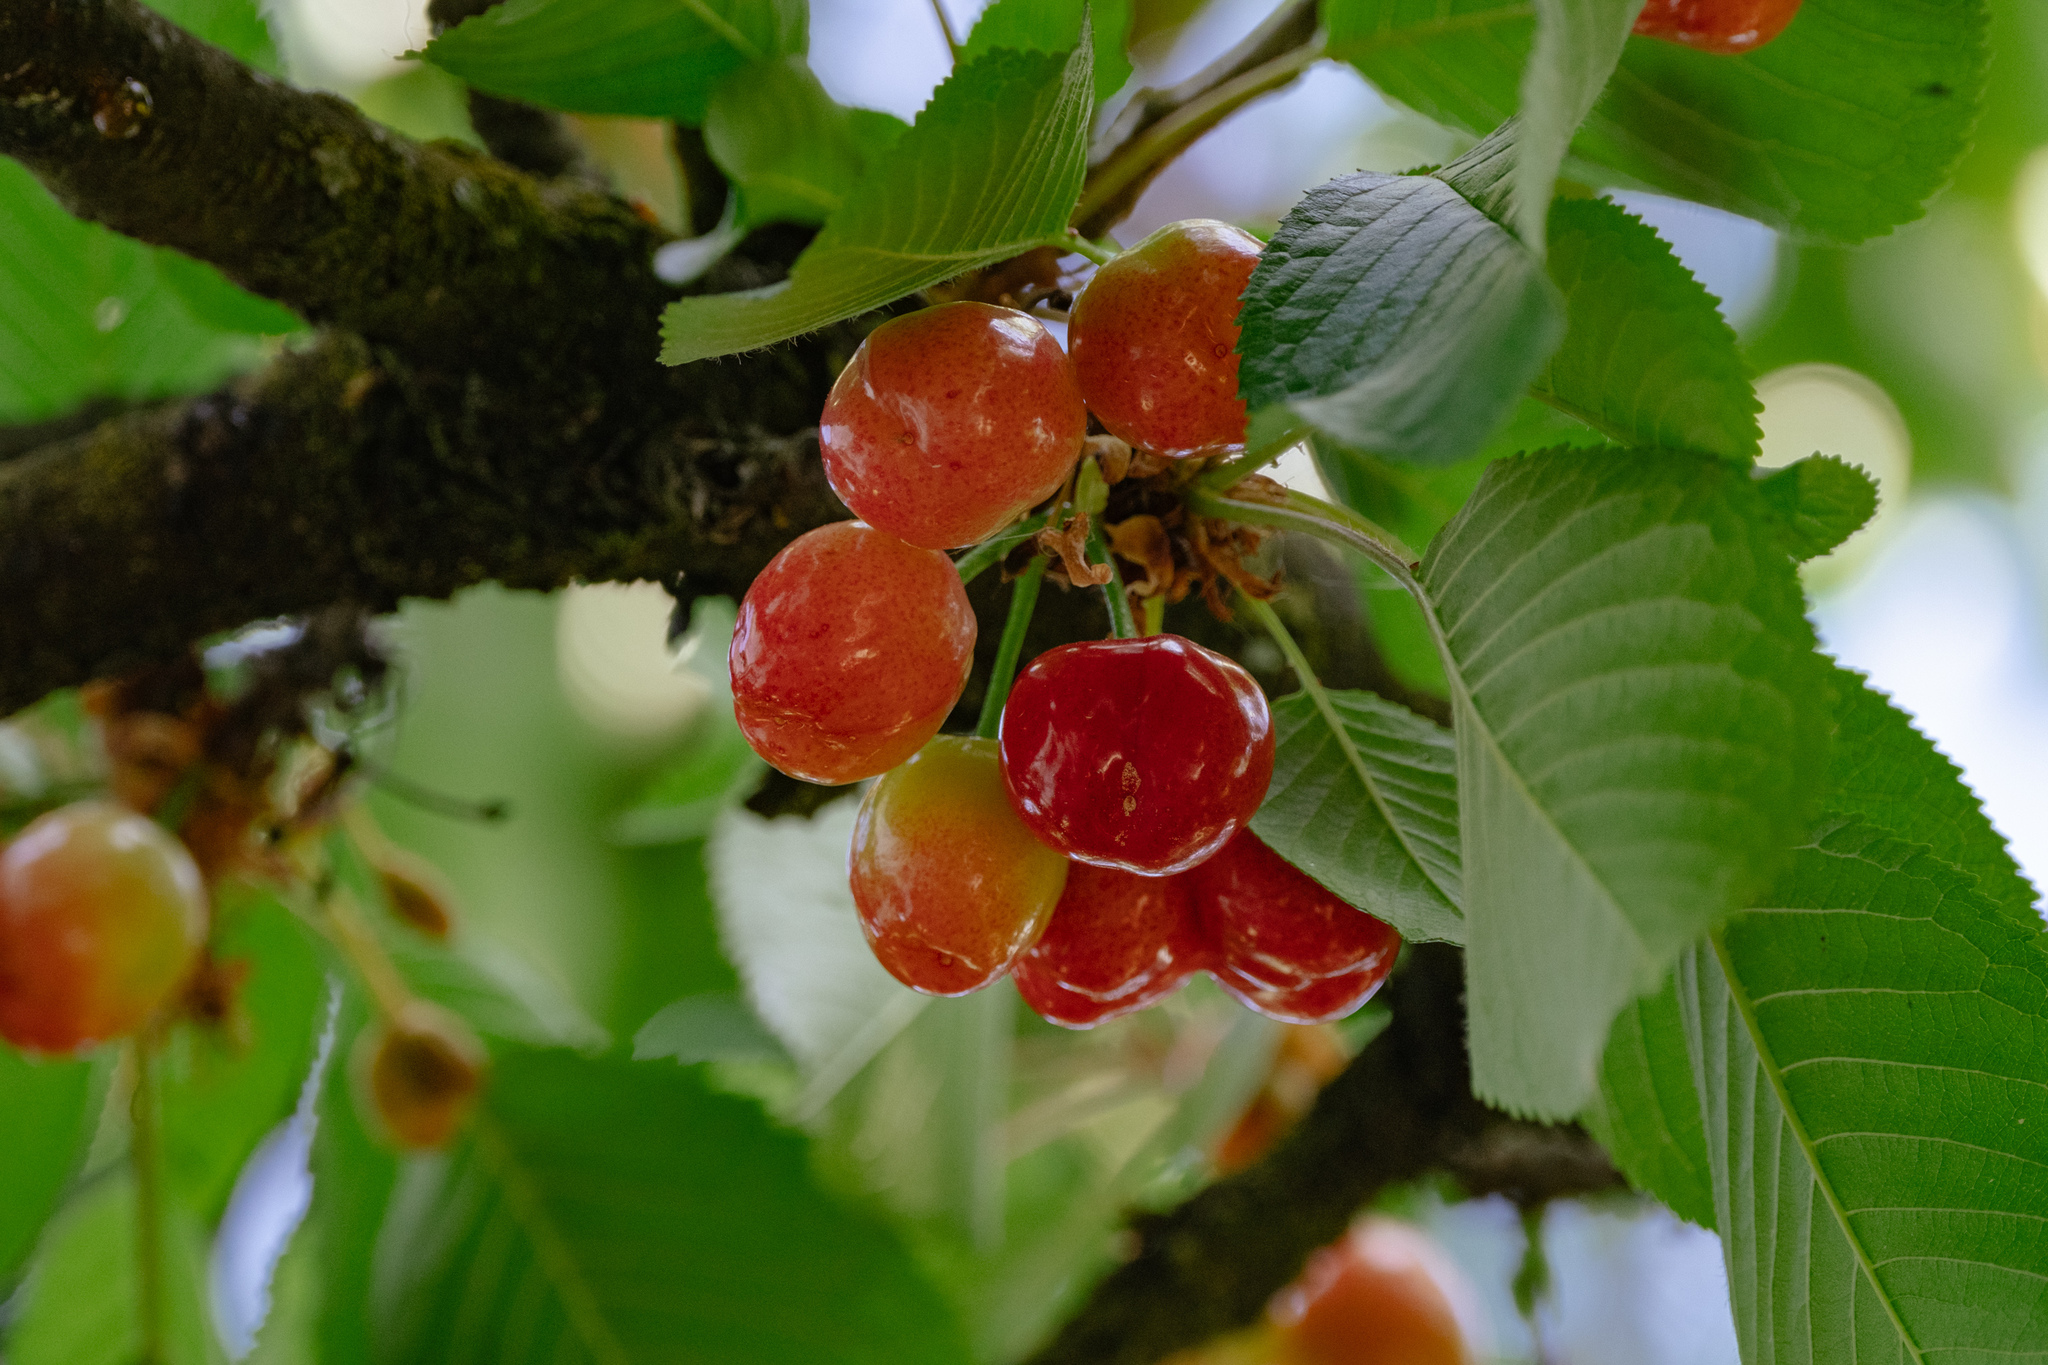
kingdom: Plantae
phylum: Tracheophyta
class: Magnoliopsida
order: Rosales
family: Rosaceae
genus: Prunus
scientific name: Prunus avium
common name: Sweet cherry
